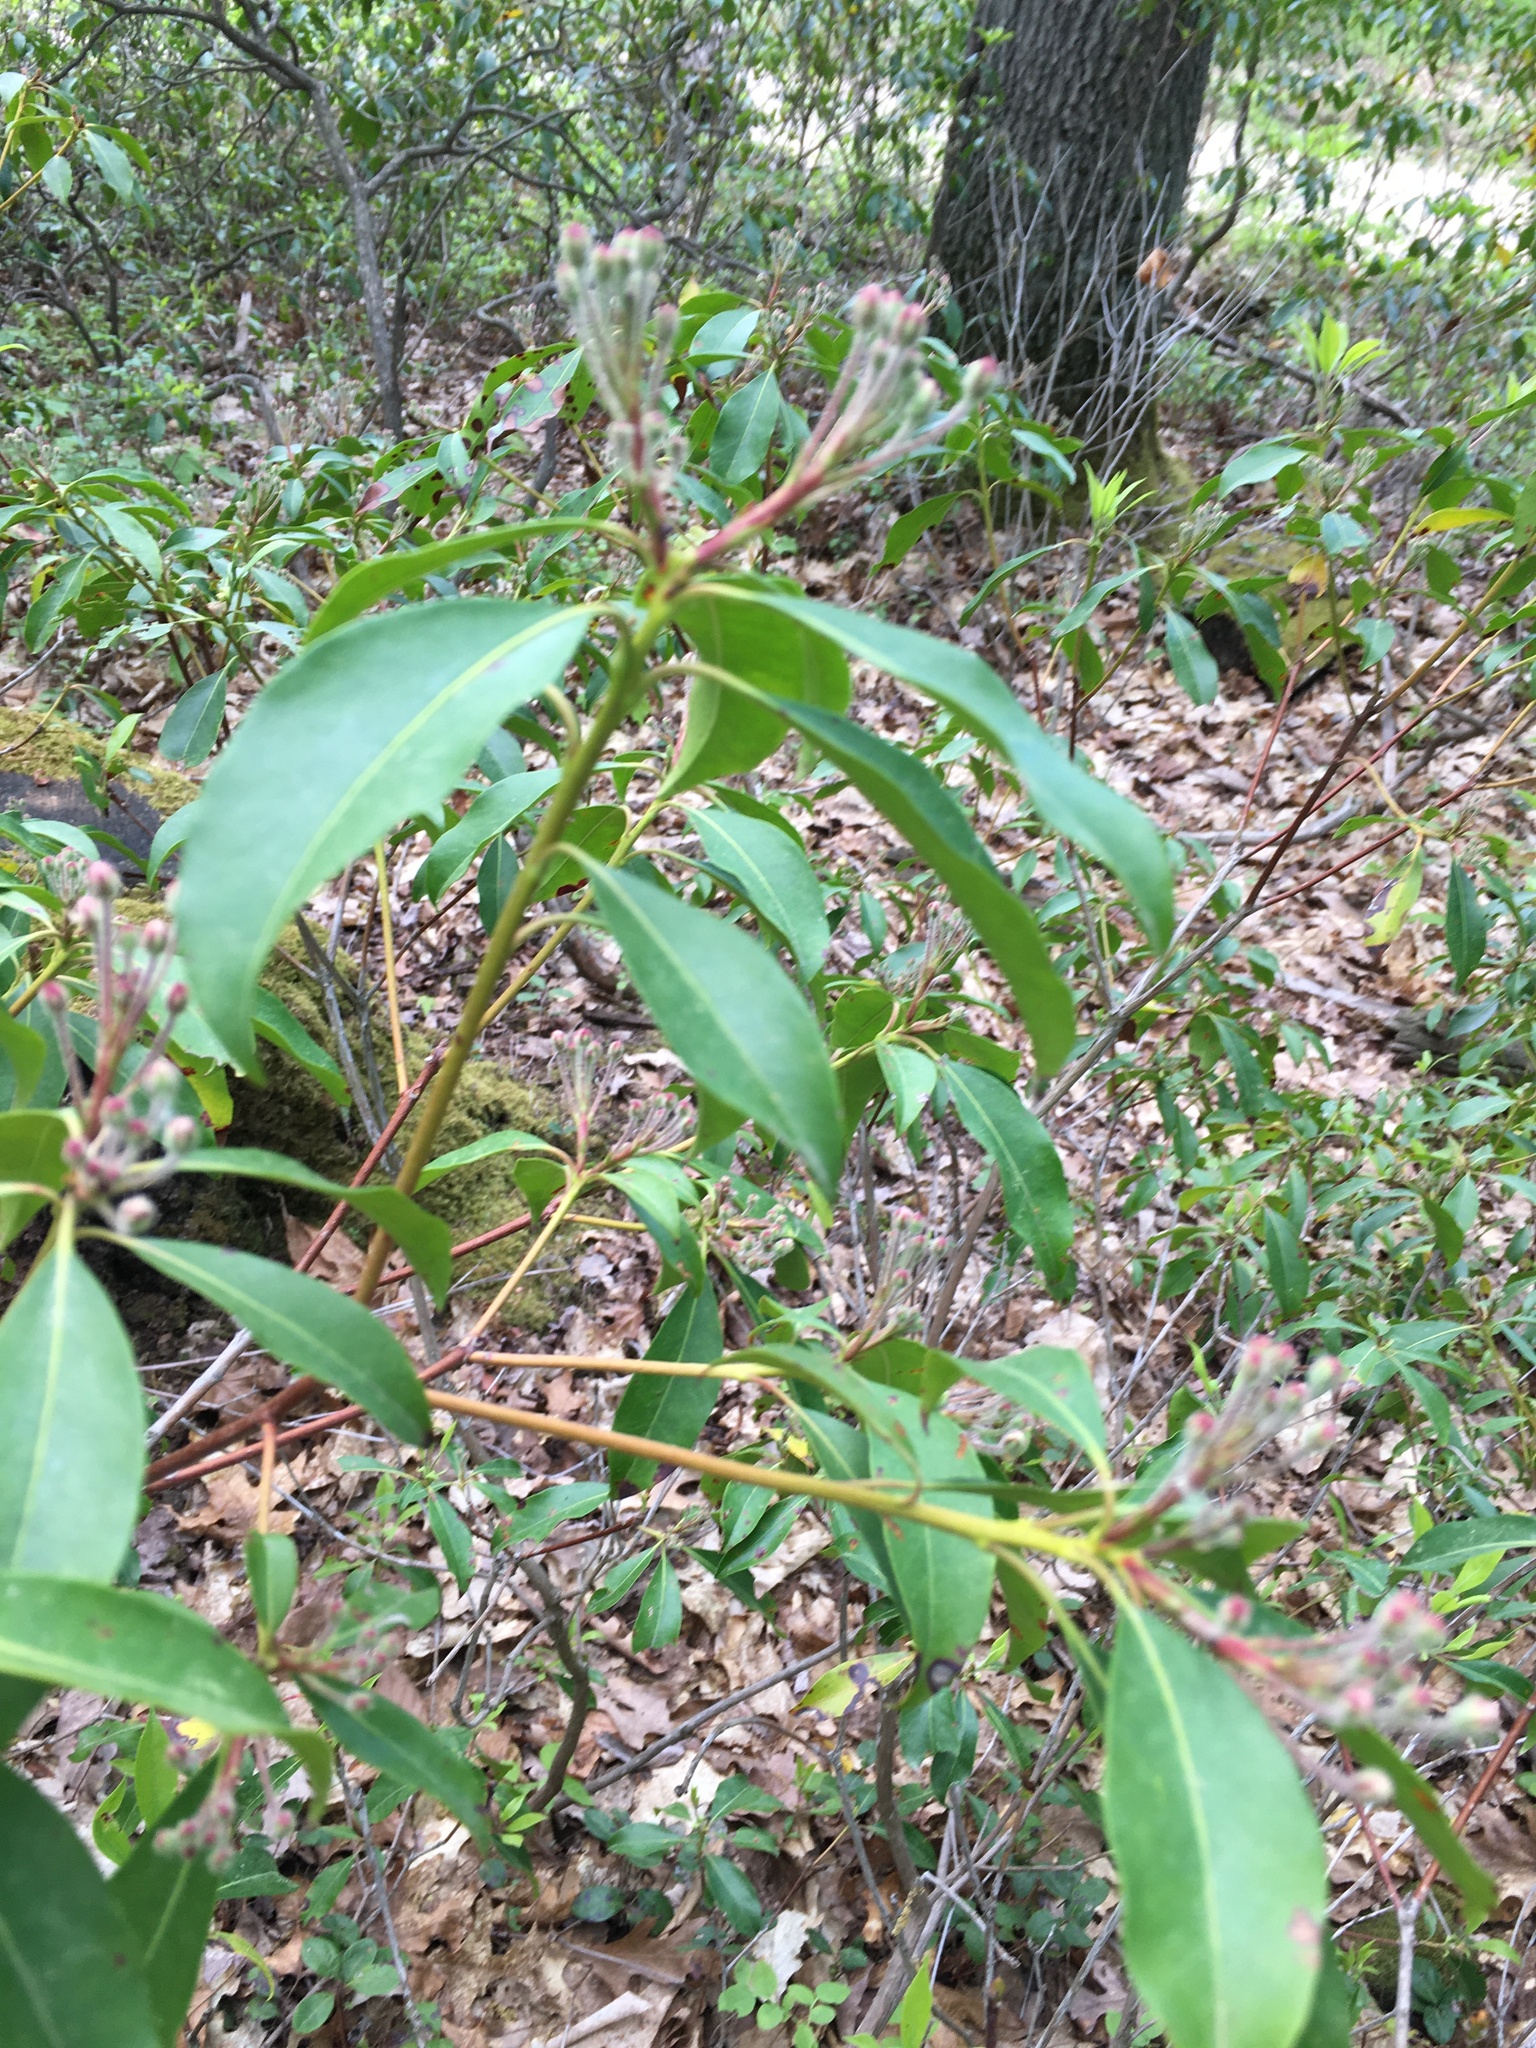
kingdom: Plantae
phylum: Tracheophyta
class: Magnoliopsida
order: Ericales
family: Ericaceae
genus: Kalmia
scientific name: Kalmia latifolia
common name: Mountain-laurel
